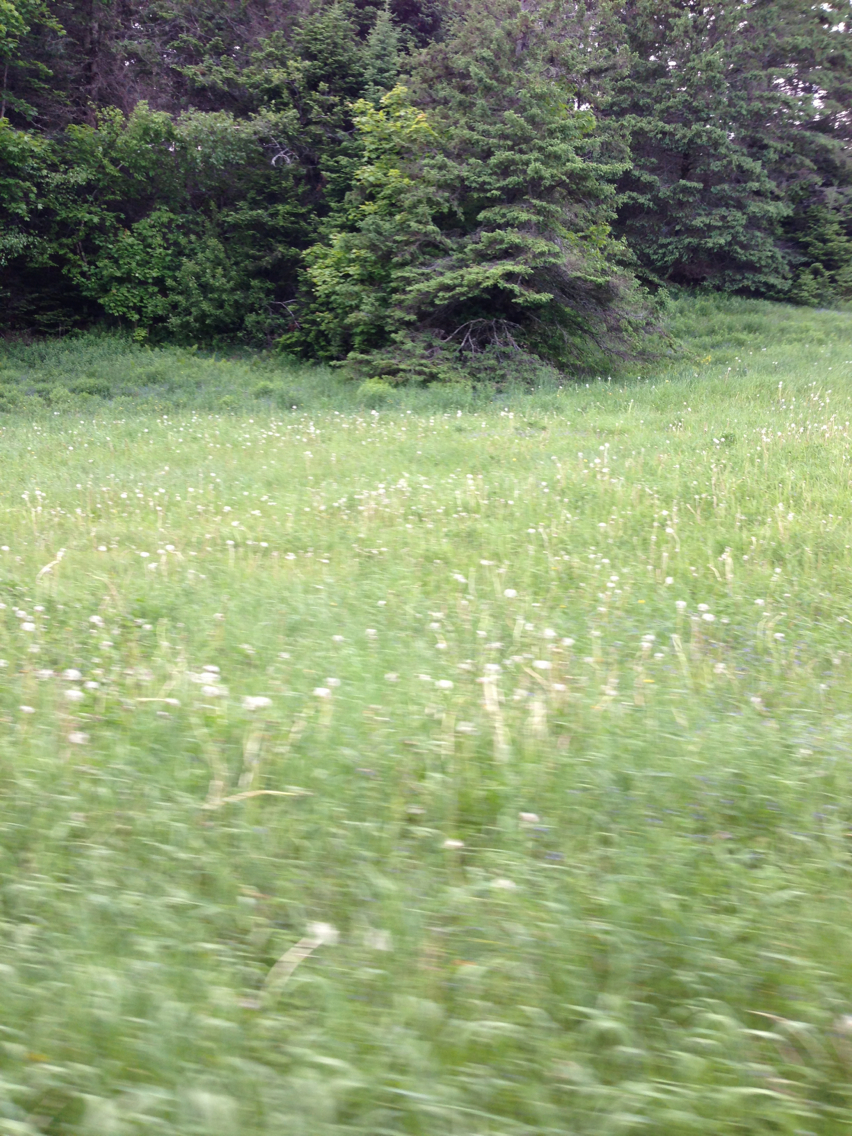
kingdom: Plantae
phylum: Tracheophyta
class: Magnoliopsida
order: Asterales
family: Asteraceae
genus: Taraxacum
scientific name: Taraxacum officinale
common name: Common dandelion
